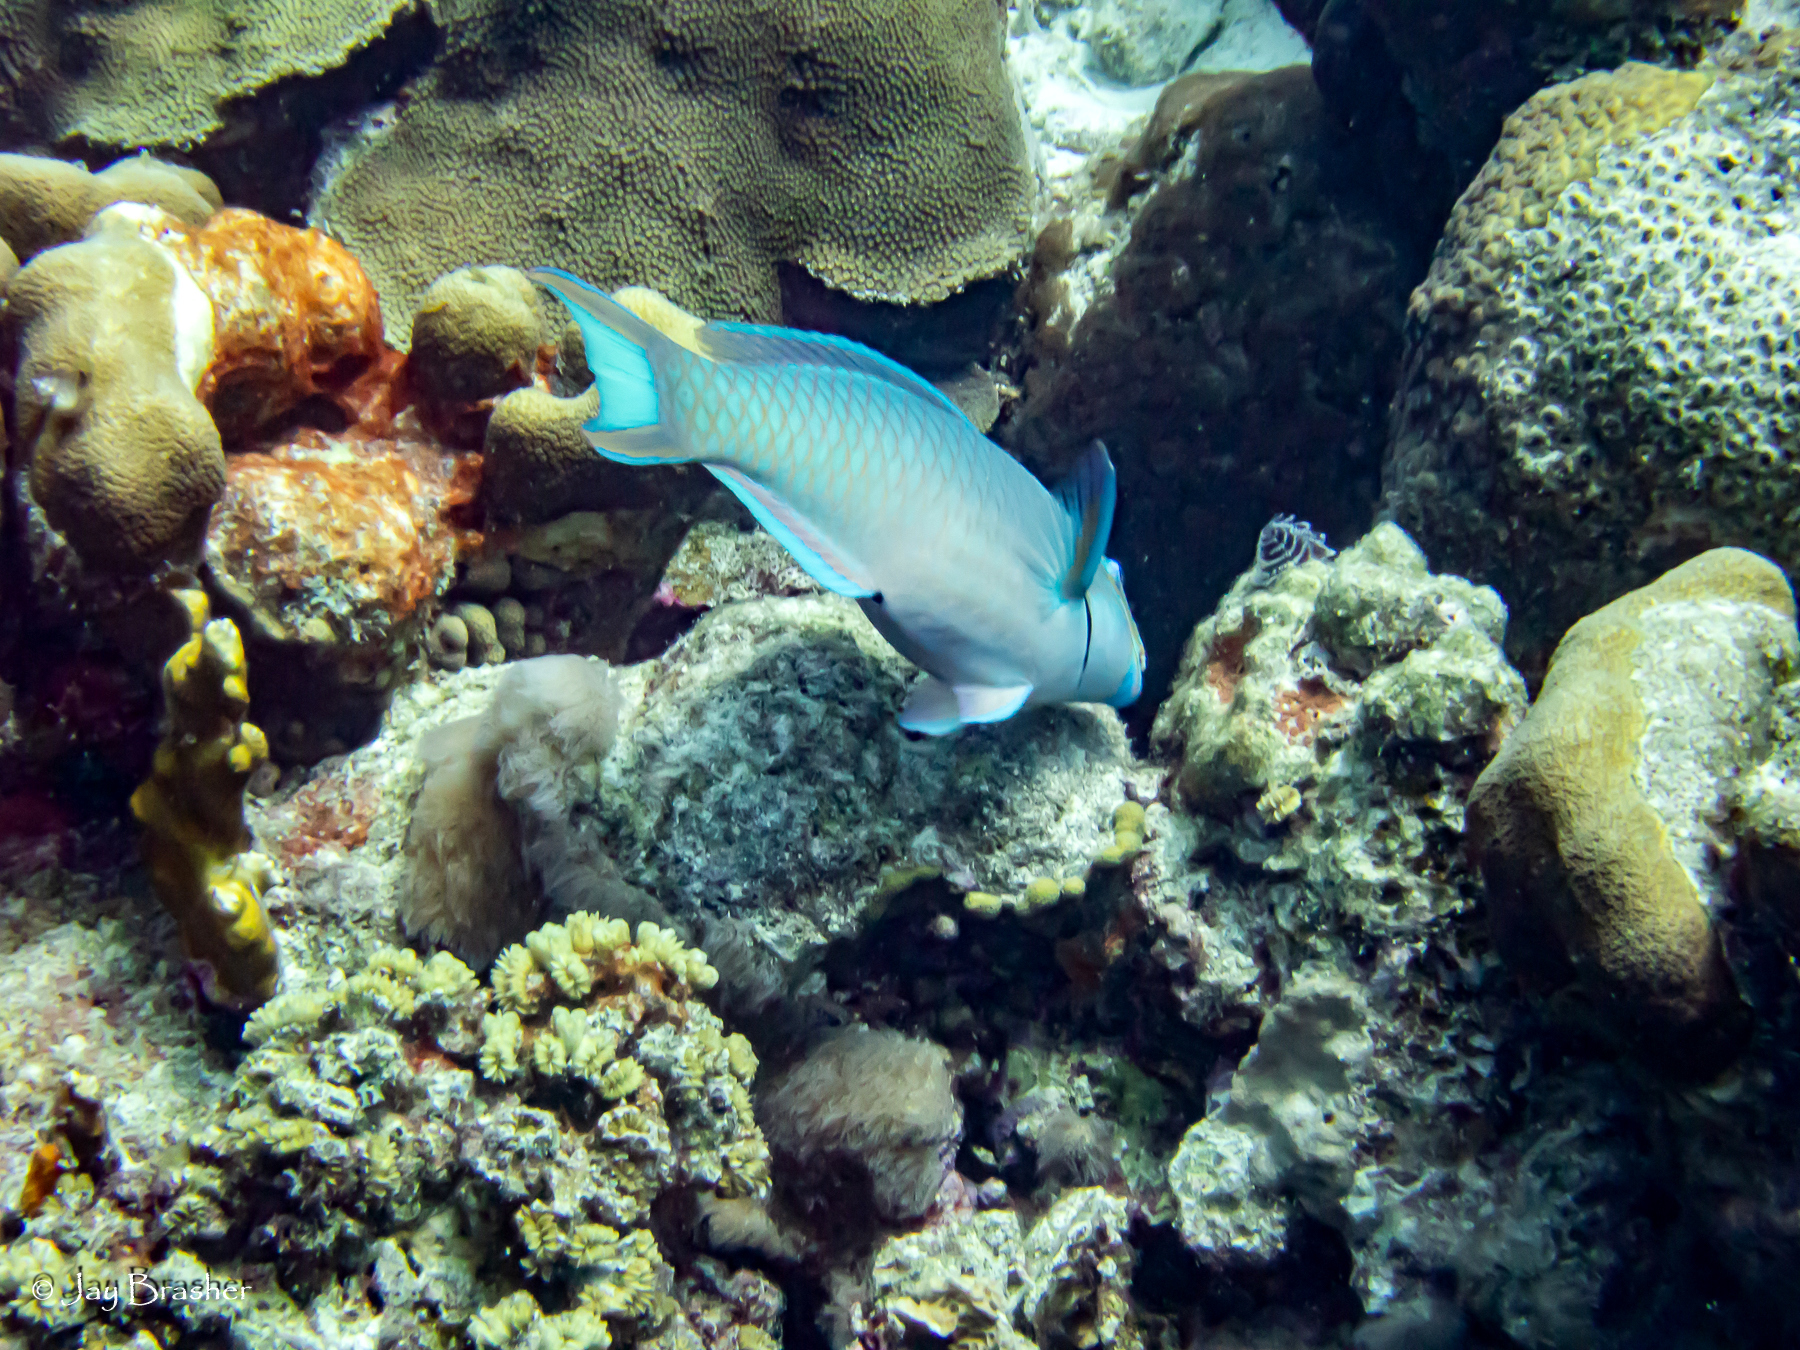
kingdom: Animalia
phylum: Cnidaria
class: Anthozoa
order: Scleractinia
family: Meandrinidae
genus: Eusmilia
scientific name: Eusmilia fastigiata
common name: Smooth flower coral
